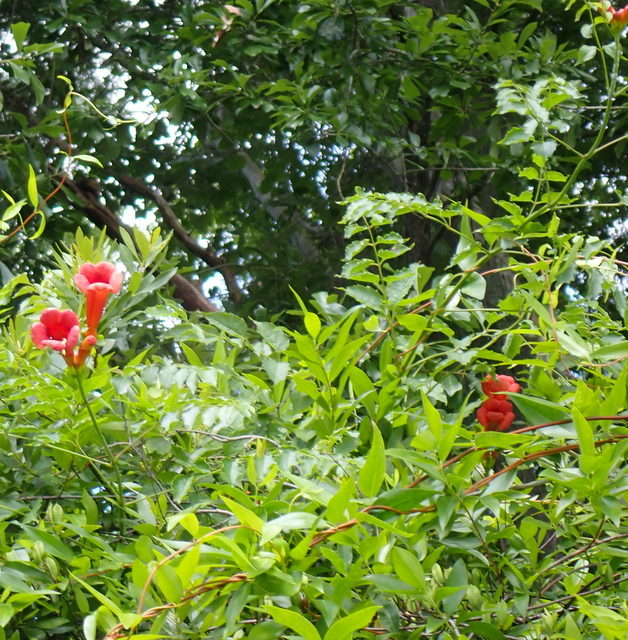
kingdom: Plantae
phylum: Tracheophyta
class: Magnoliopsida
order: Lamiales
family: Bignoniaceae
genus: Campsis
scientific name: Campsis radicans
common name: Trumpet-creeper
